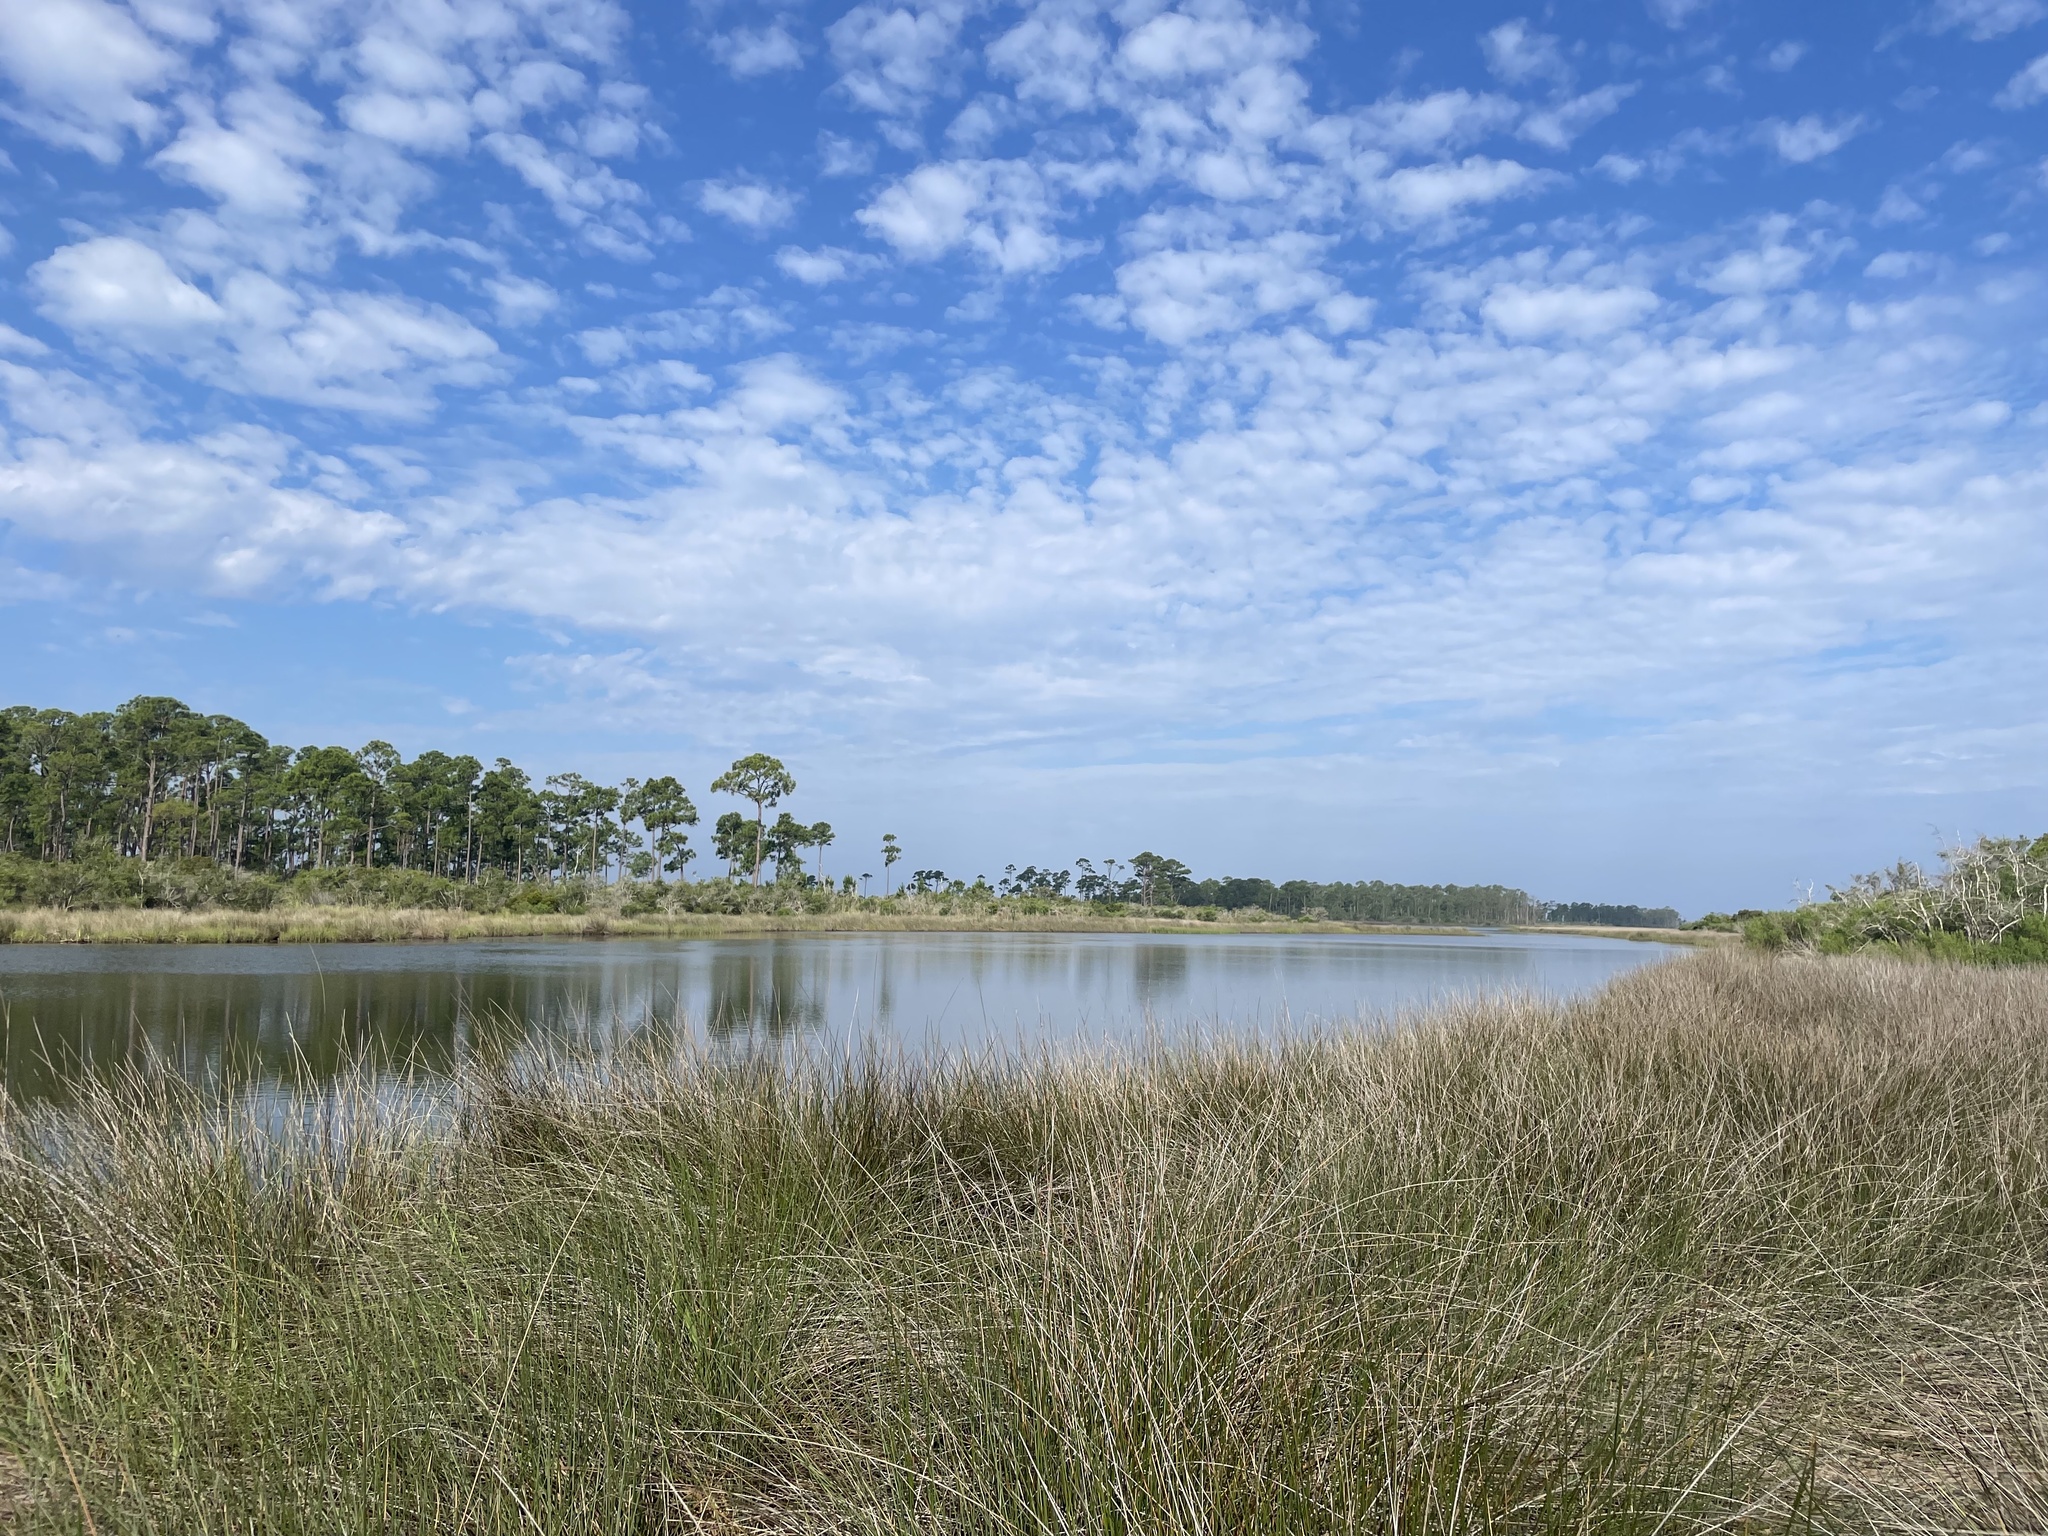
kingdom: Plantae
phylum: Tracheophyta
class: Liliopsida
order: Poales
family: Juncaceae
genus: Juncus
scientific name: Juncus roemerianus
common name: Roemer's rush
